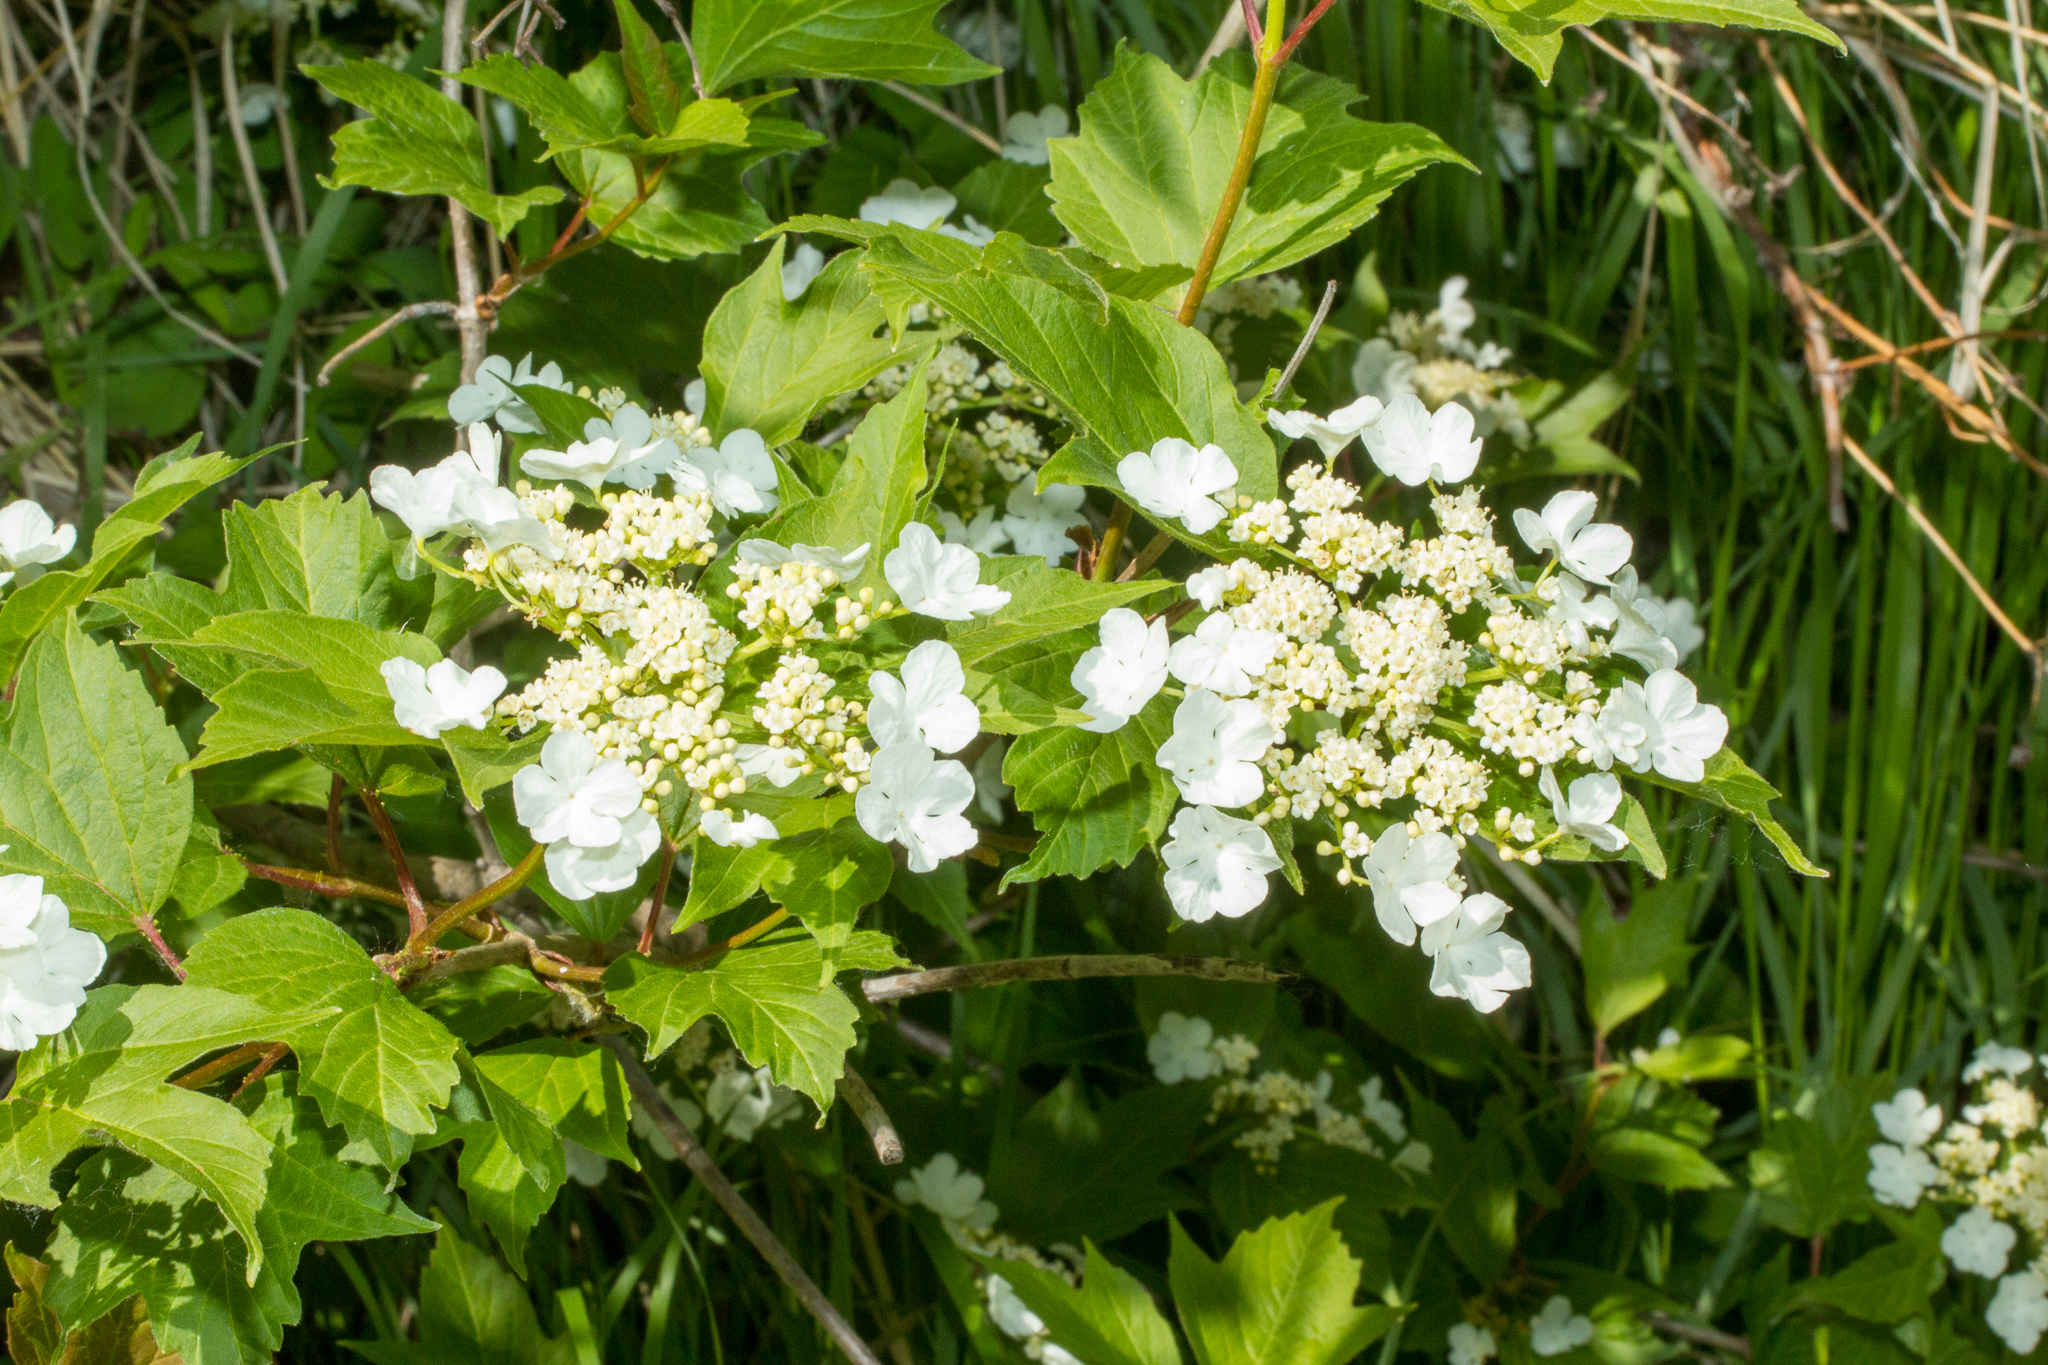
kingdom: Plantae
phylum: Tracheophyta
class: Magnoliopsida
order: Dipsacales
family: Viburnaceae
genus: Viburnum
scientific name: Viburnum opulus
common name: Guelder-rose
